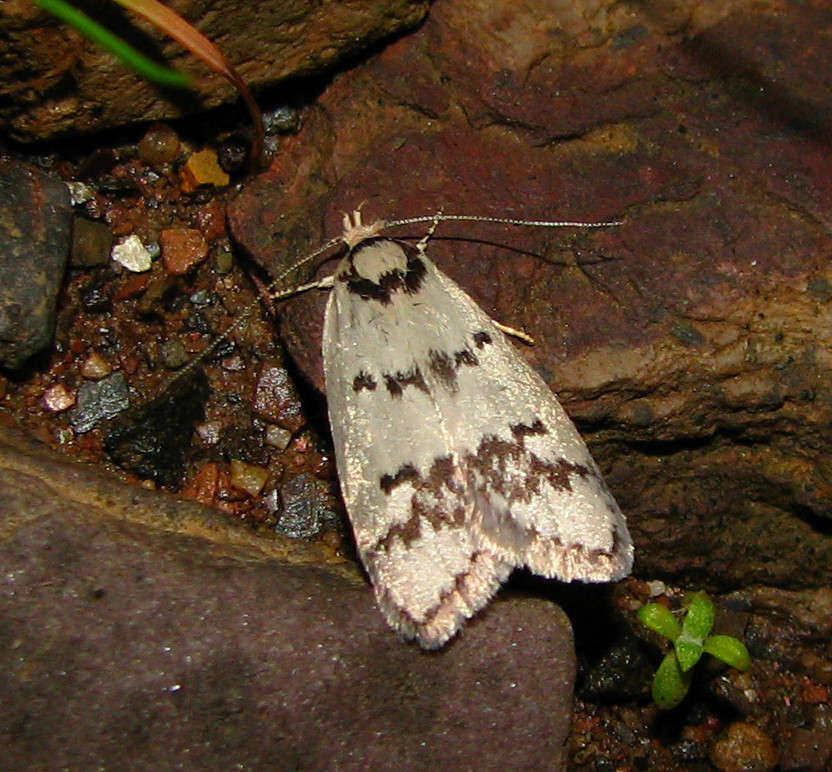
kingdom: Animalia
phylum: Arthropoda
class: Insecta
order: Lepidoptera
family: Oecophoridae
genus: Compsotropha
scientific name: Compsotropha selenias
